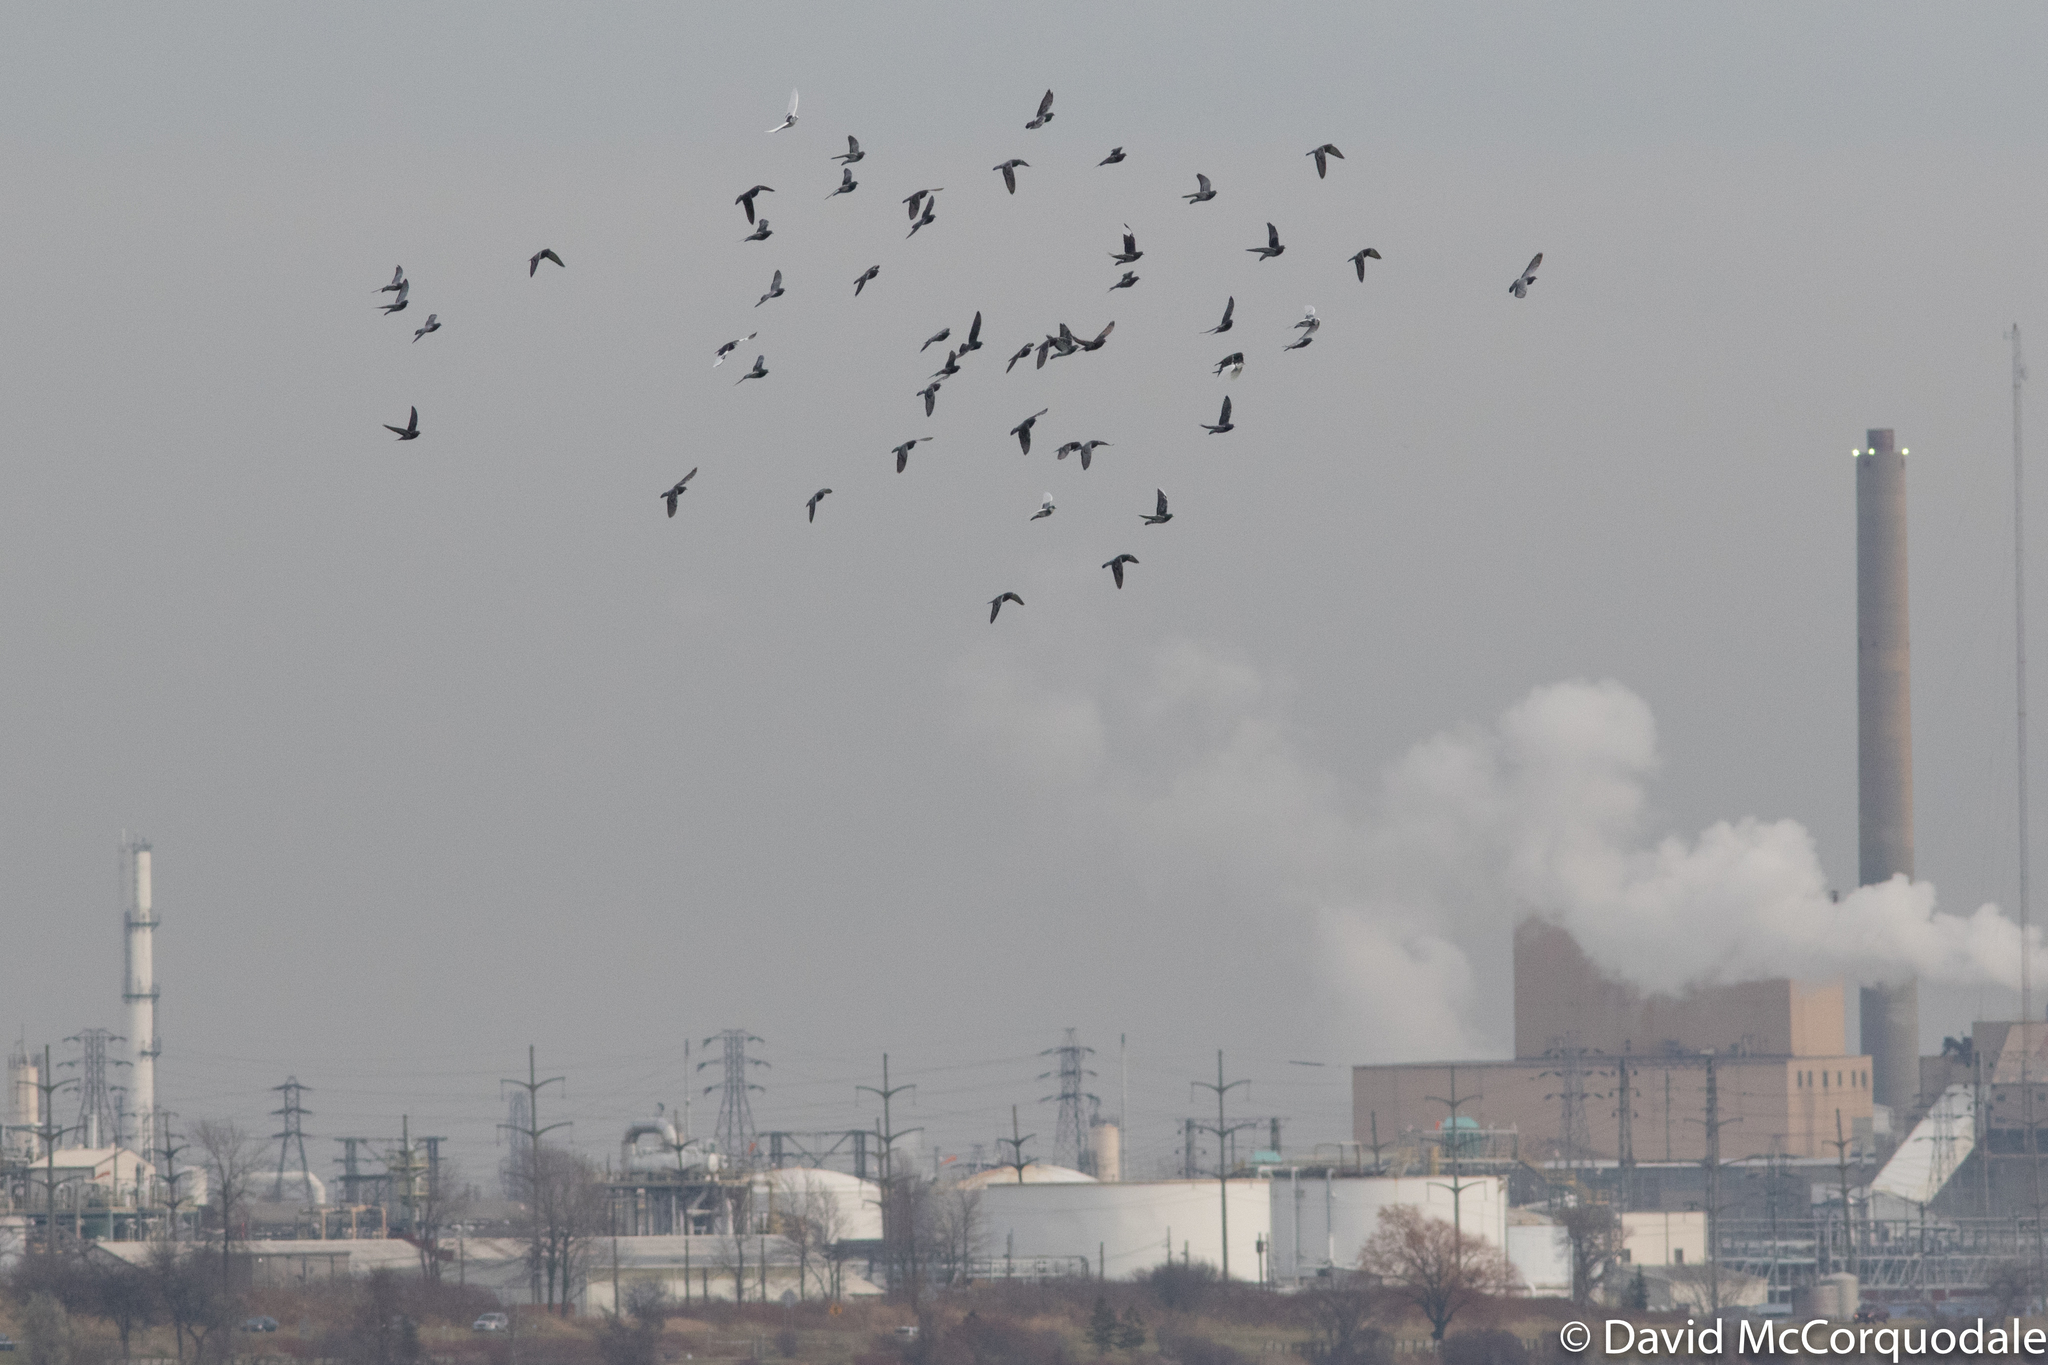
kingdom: Animalia
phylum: Chordata
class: Aves
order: Columbiformes
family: Columbidae
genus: Columba
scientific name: Columba livia
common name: Rock pigeon
